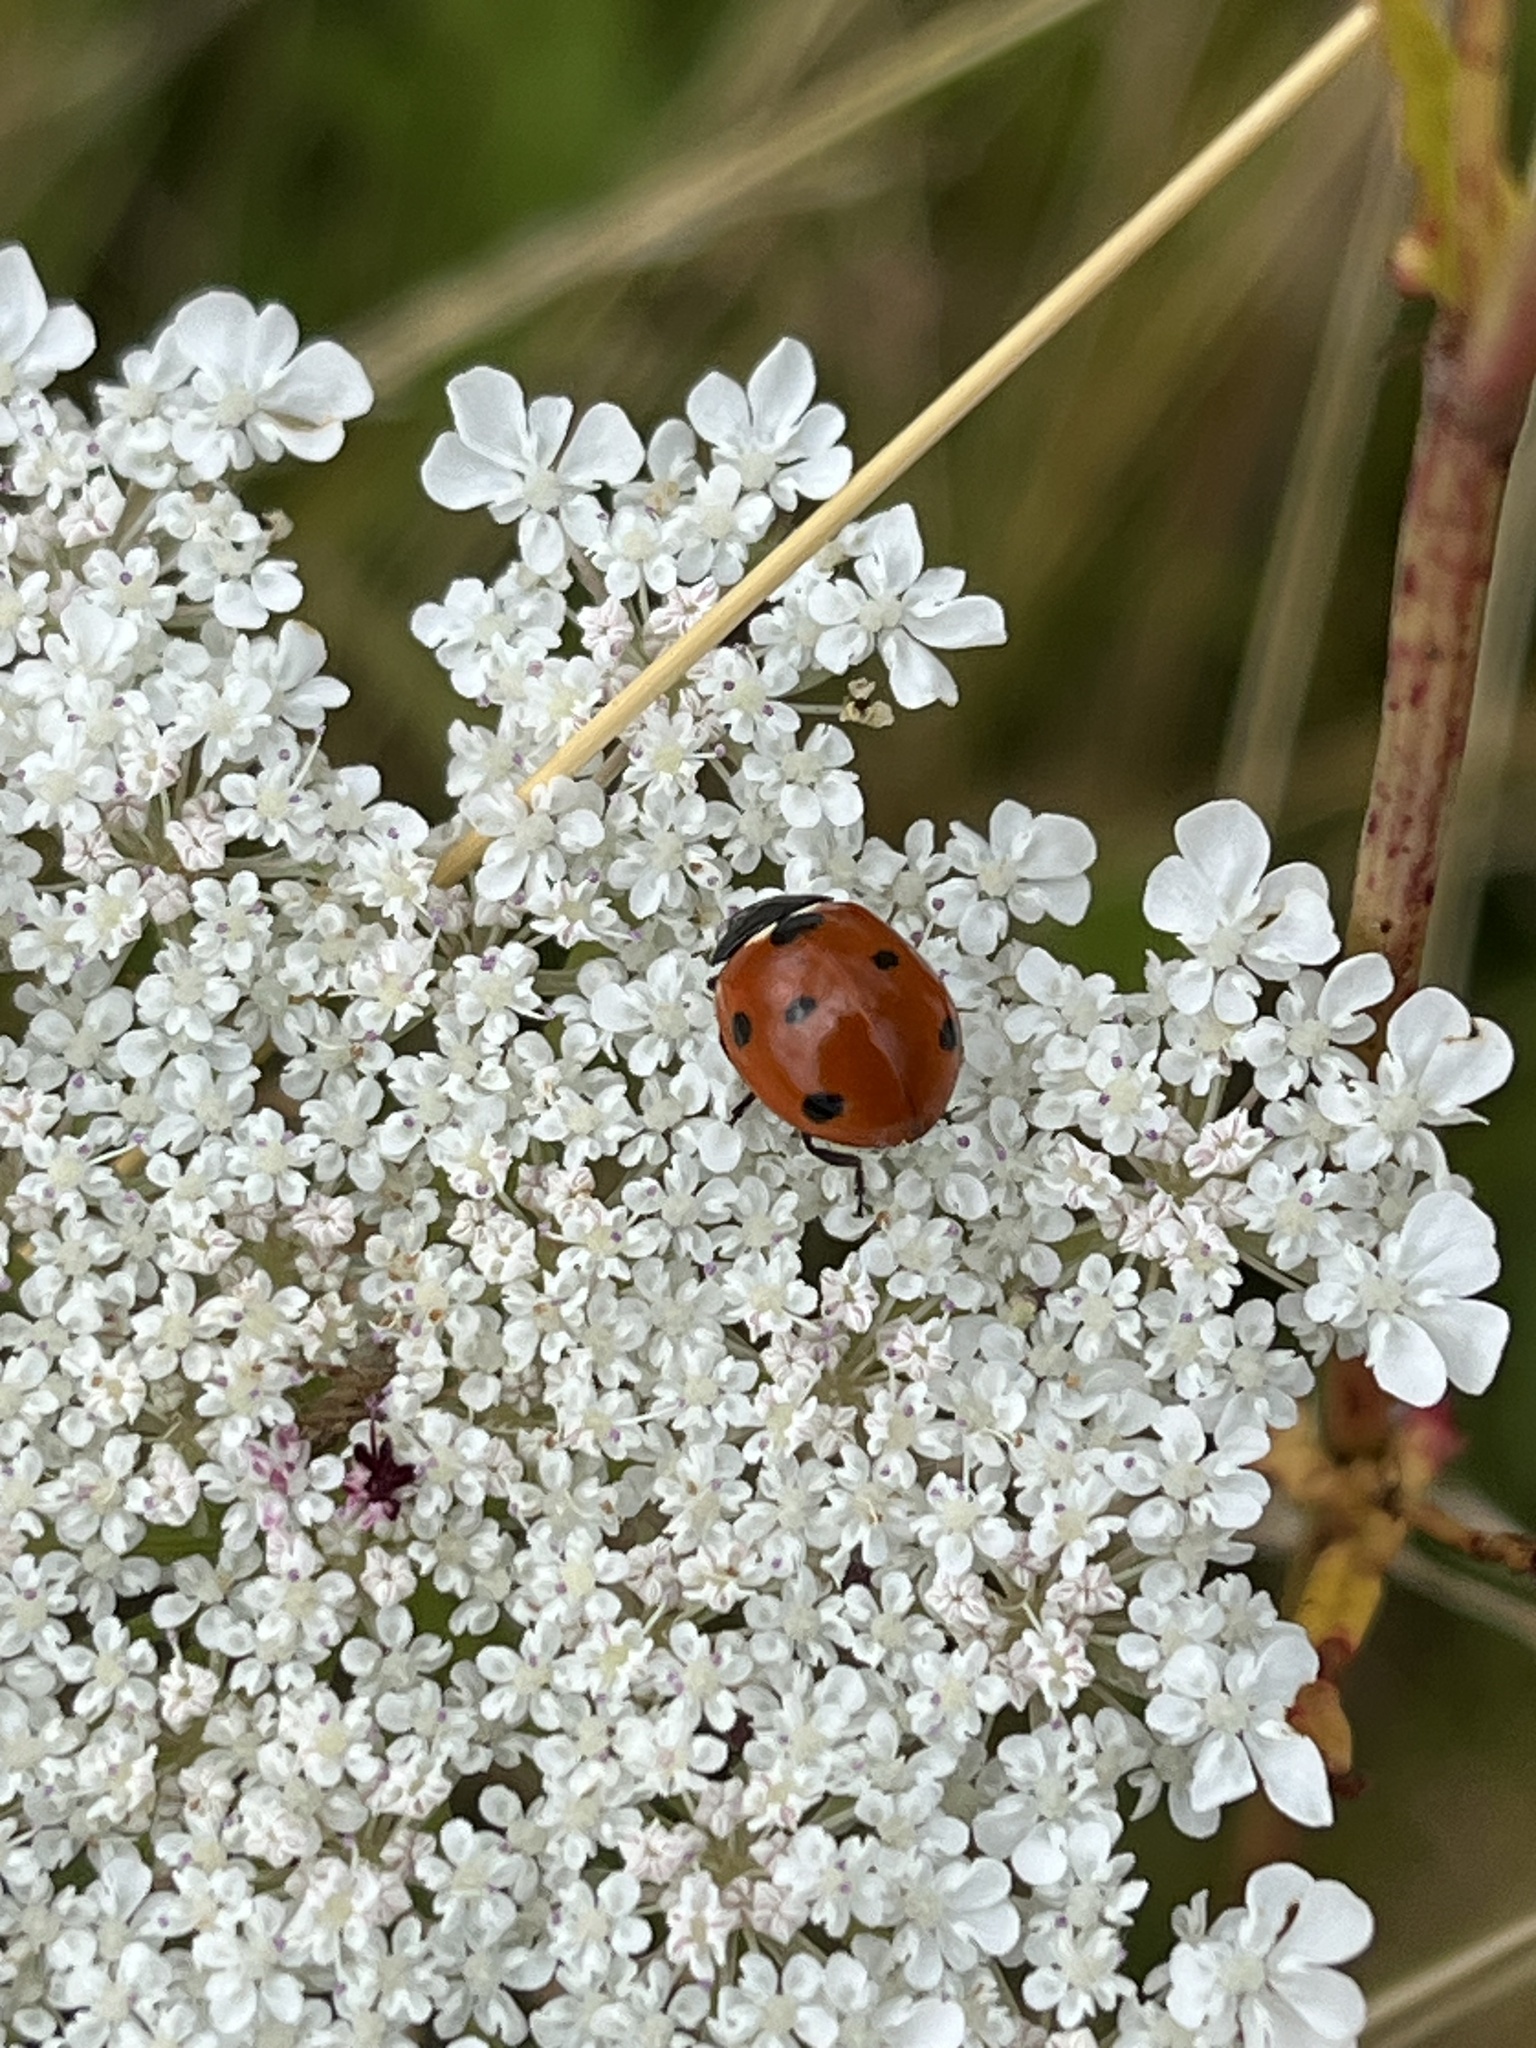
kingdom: Animalia
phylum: Arthropoda
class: Insecta
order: Coleoptera
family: Coccinellidae
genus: Coccinella
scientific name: Coccinella septempunctata
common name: Sevenspotted lady beetle
